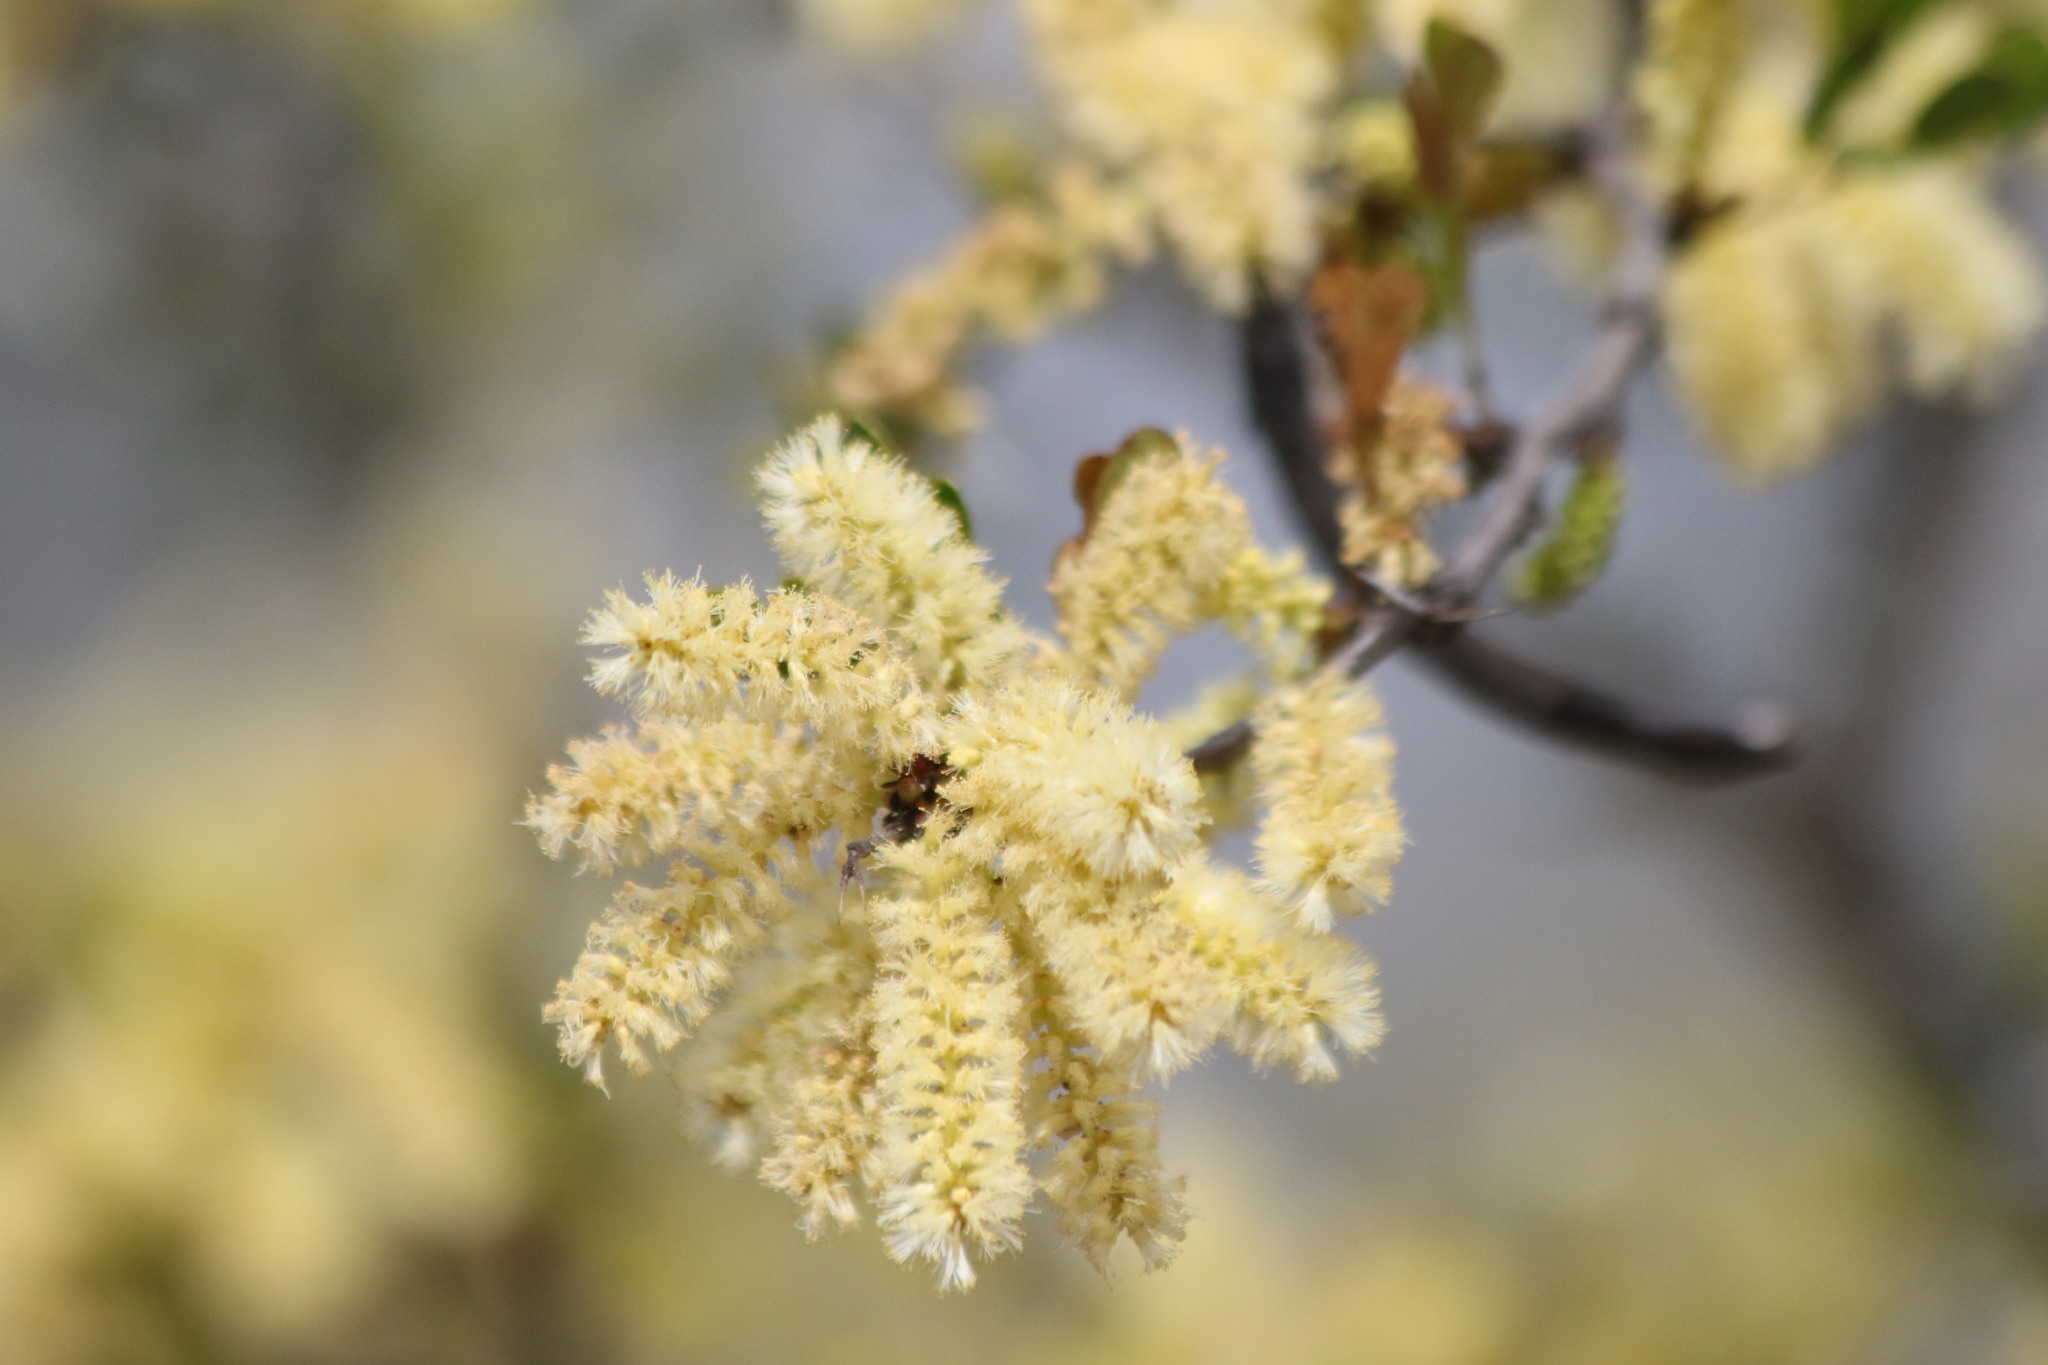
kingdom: Plantae
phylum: Tracheophyta
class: Magnoliopsida
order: Fabales
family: Fabaceae
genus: Vachellia
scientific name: Vachellia rigidula
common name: Blackbrush
